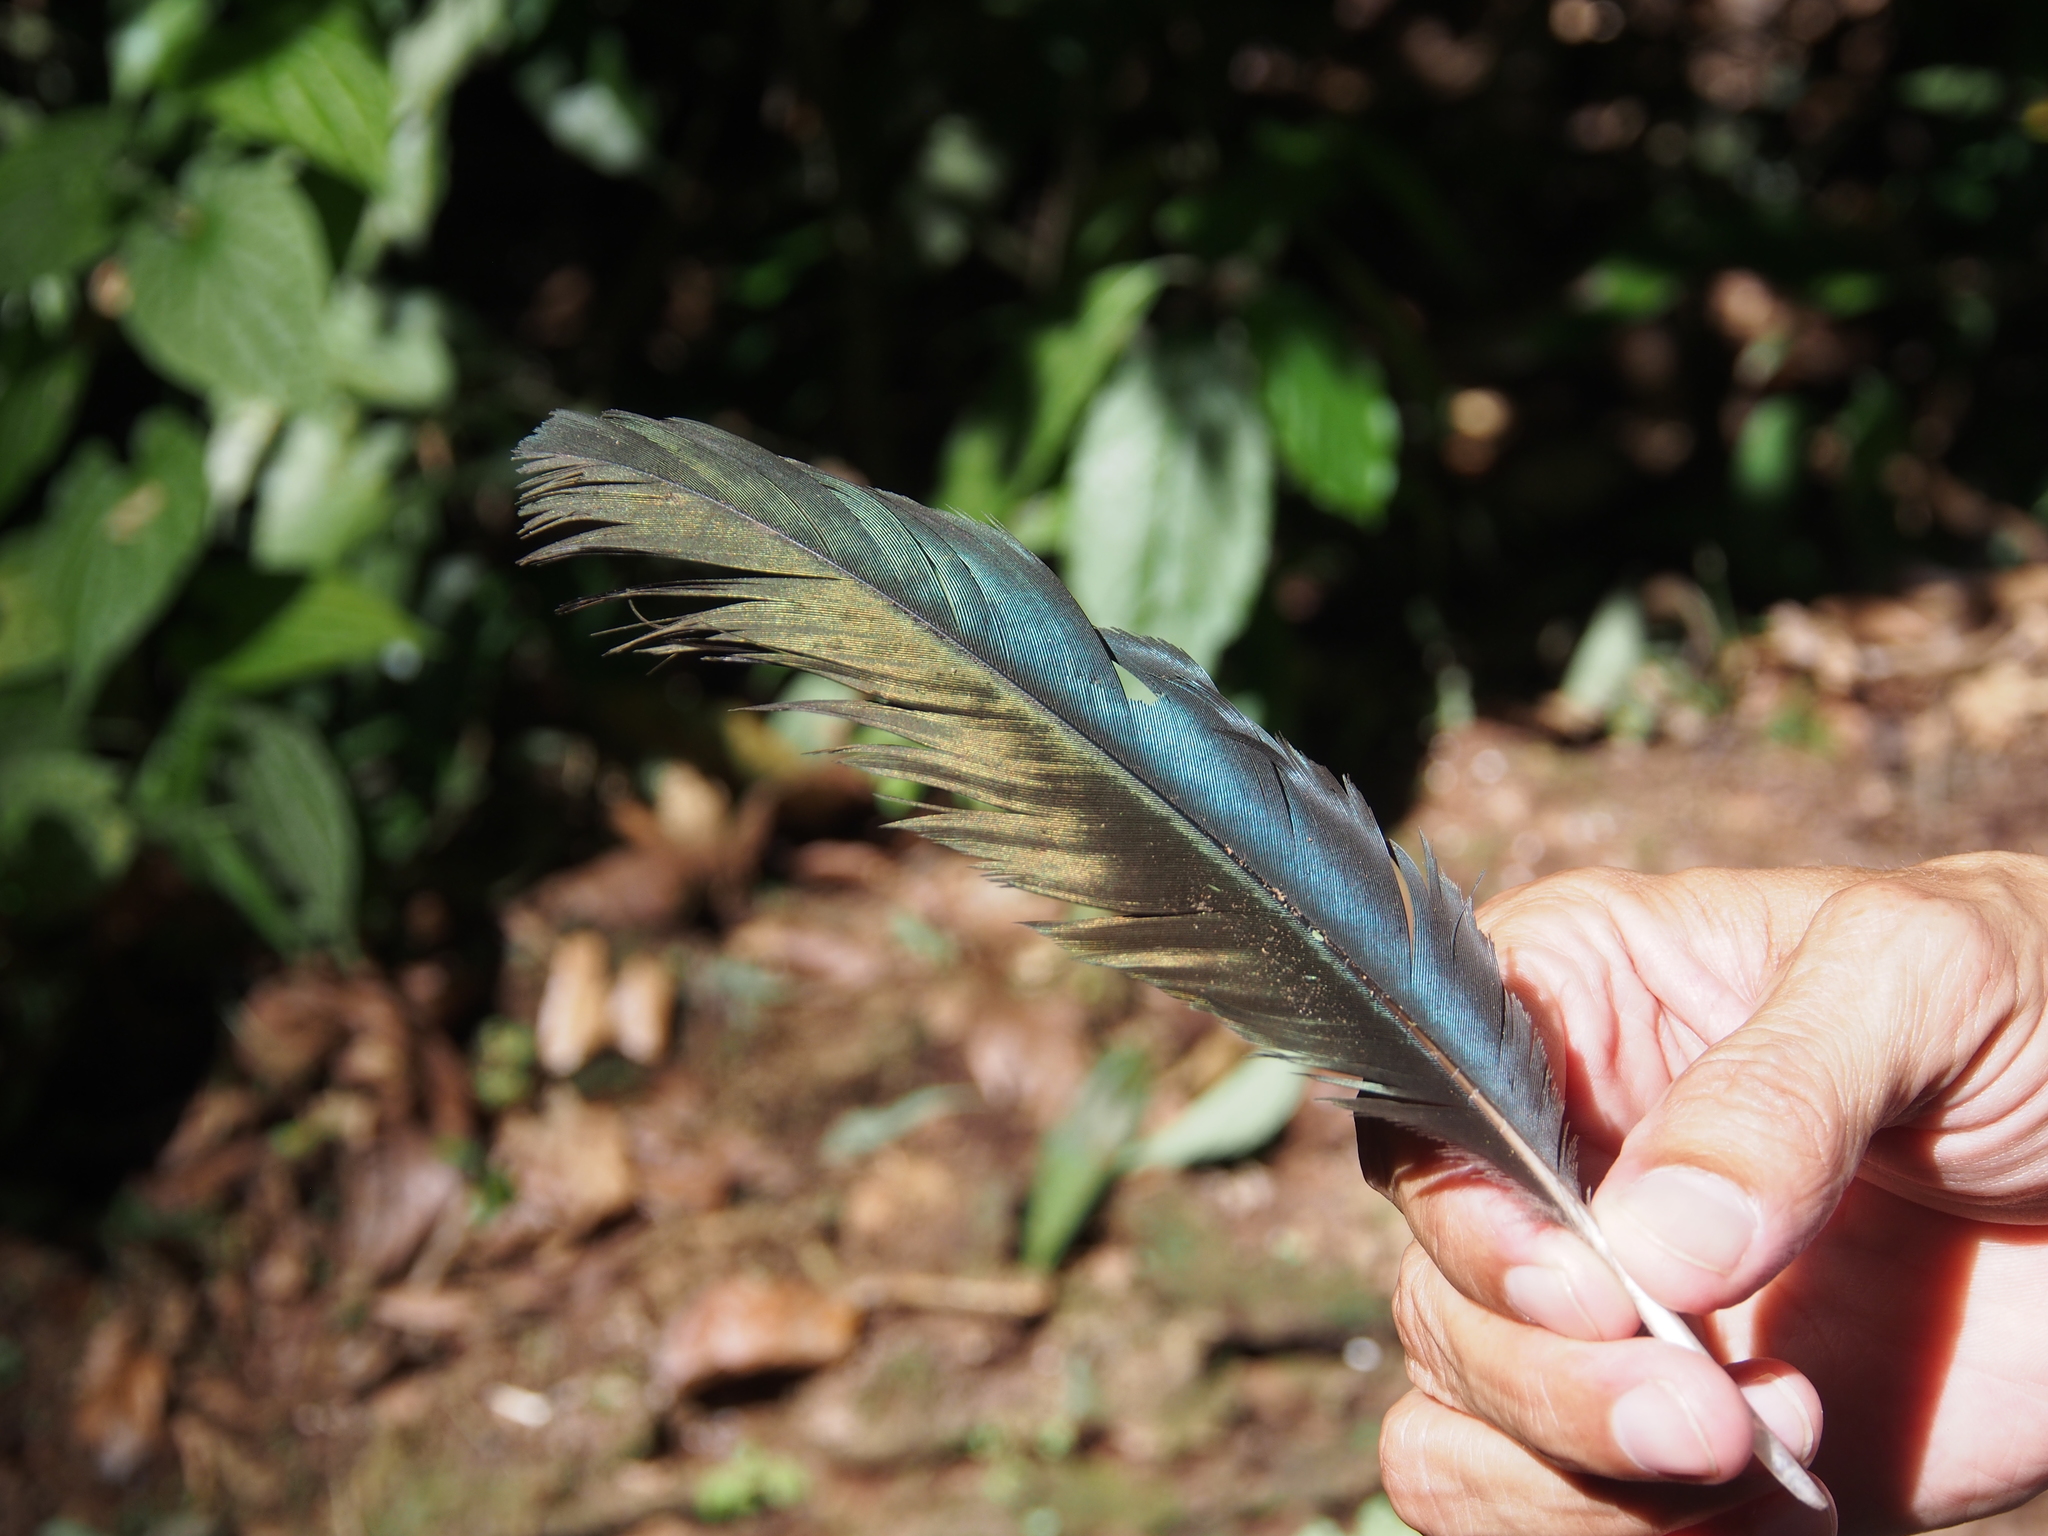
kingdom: Animalia
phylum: Chordata
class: Aves
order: Pelecaniformes
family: Threskiornithidae
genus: Mesembrinibis
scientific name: Mesembrinibis cayennensis
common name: Green ibis
